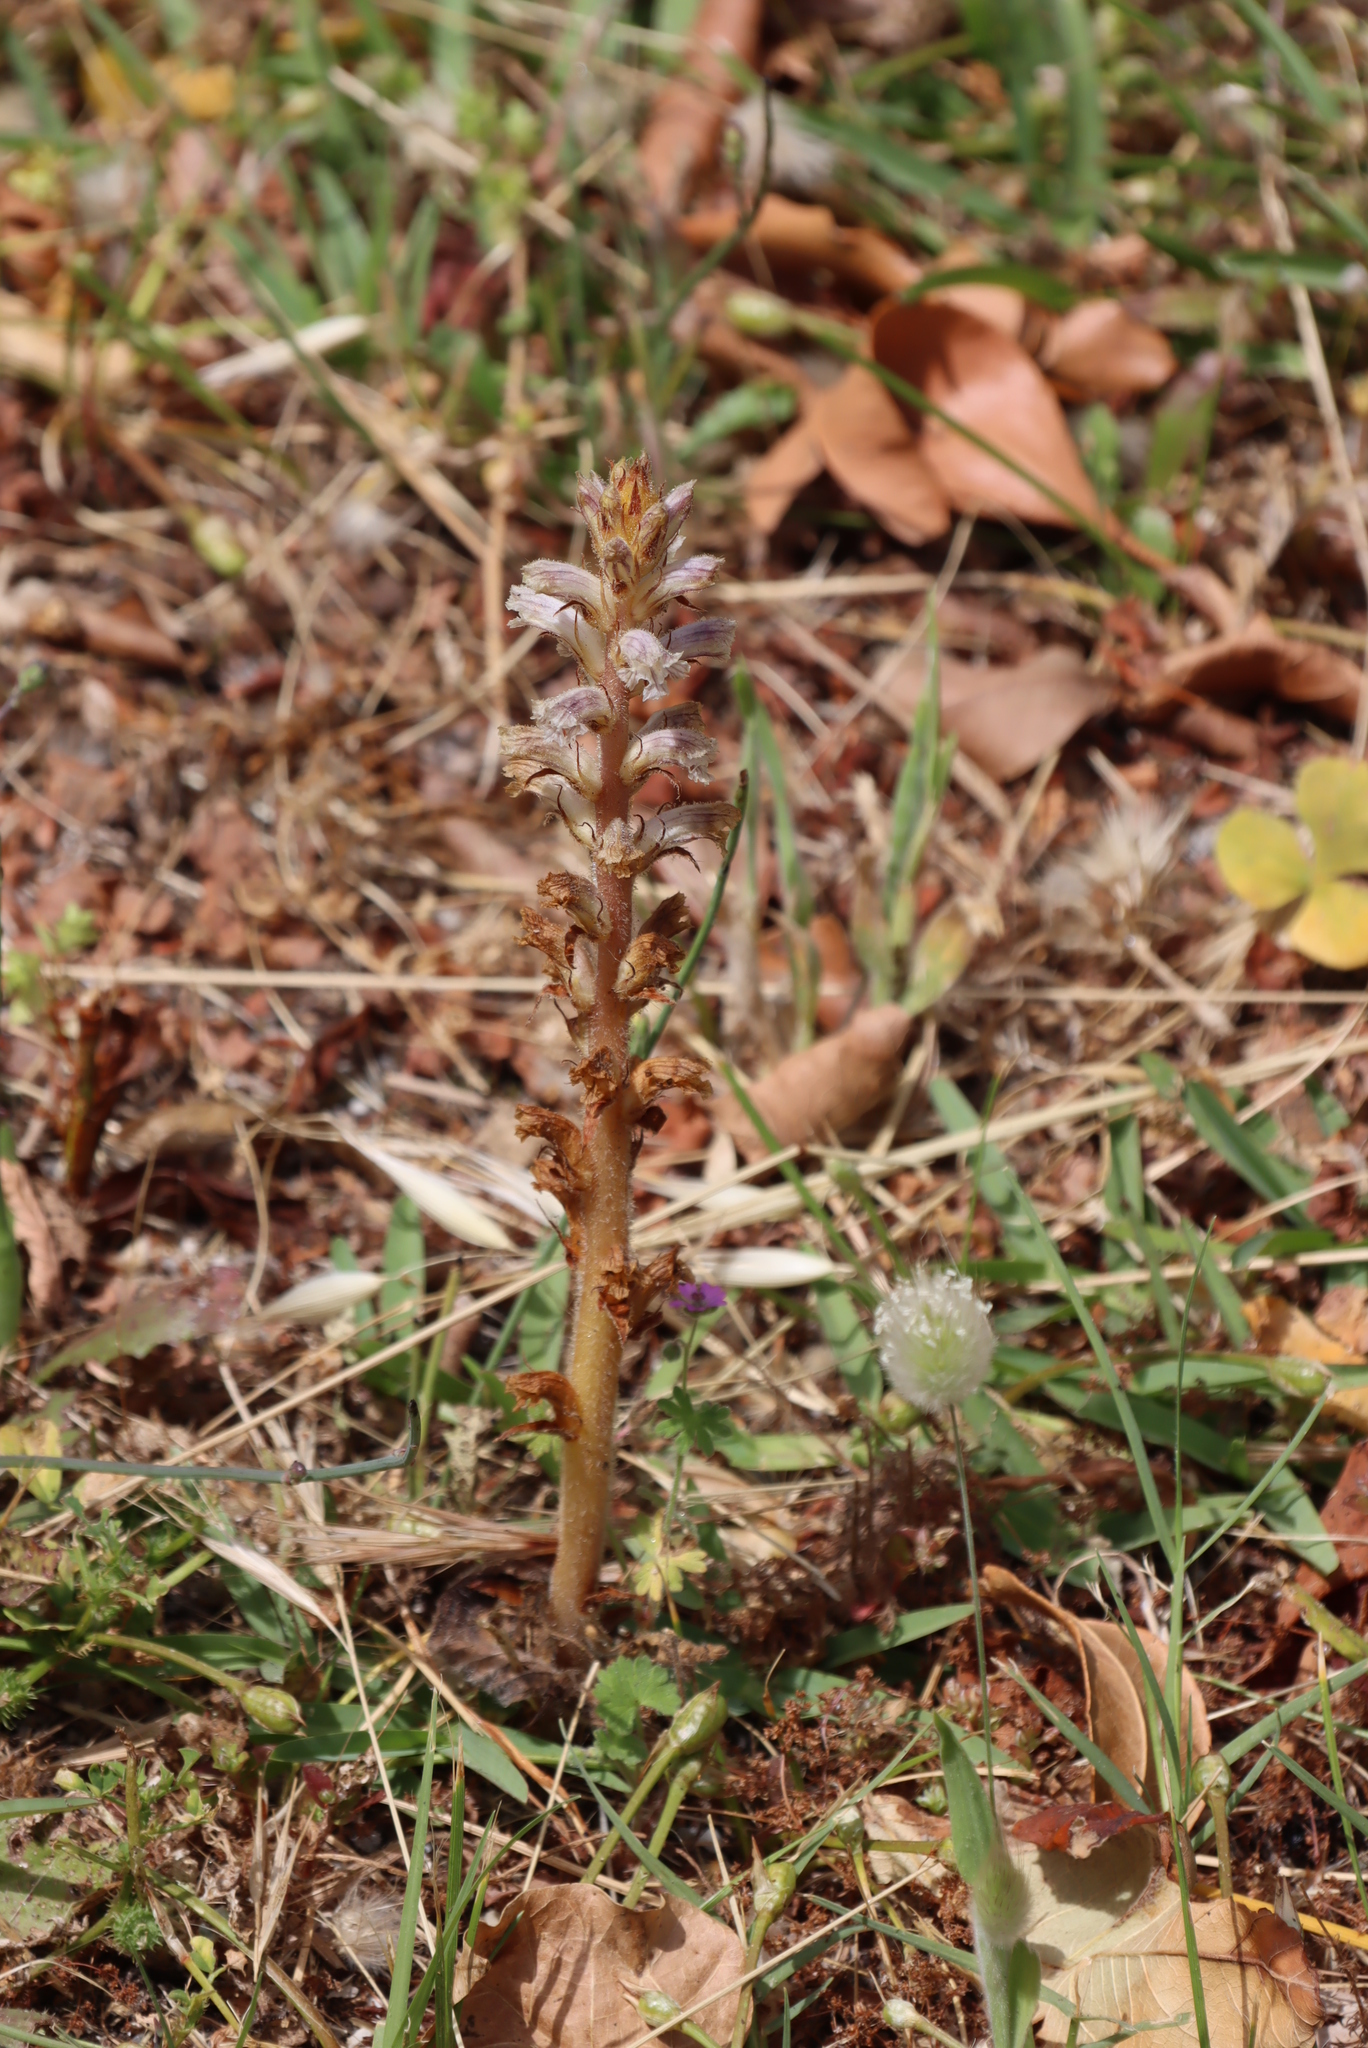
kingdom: Plantae
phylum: Tracheophyta
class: Magnoliopsida
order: Lamiales
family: Orobanchaceae
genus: Orobanche
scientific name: Orobanche minor
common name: Common broomrape
